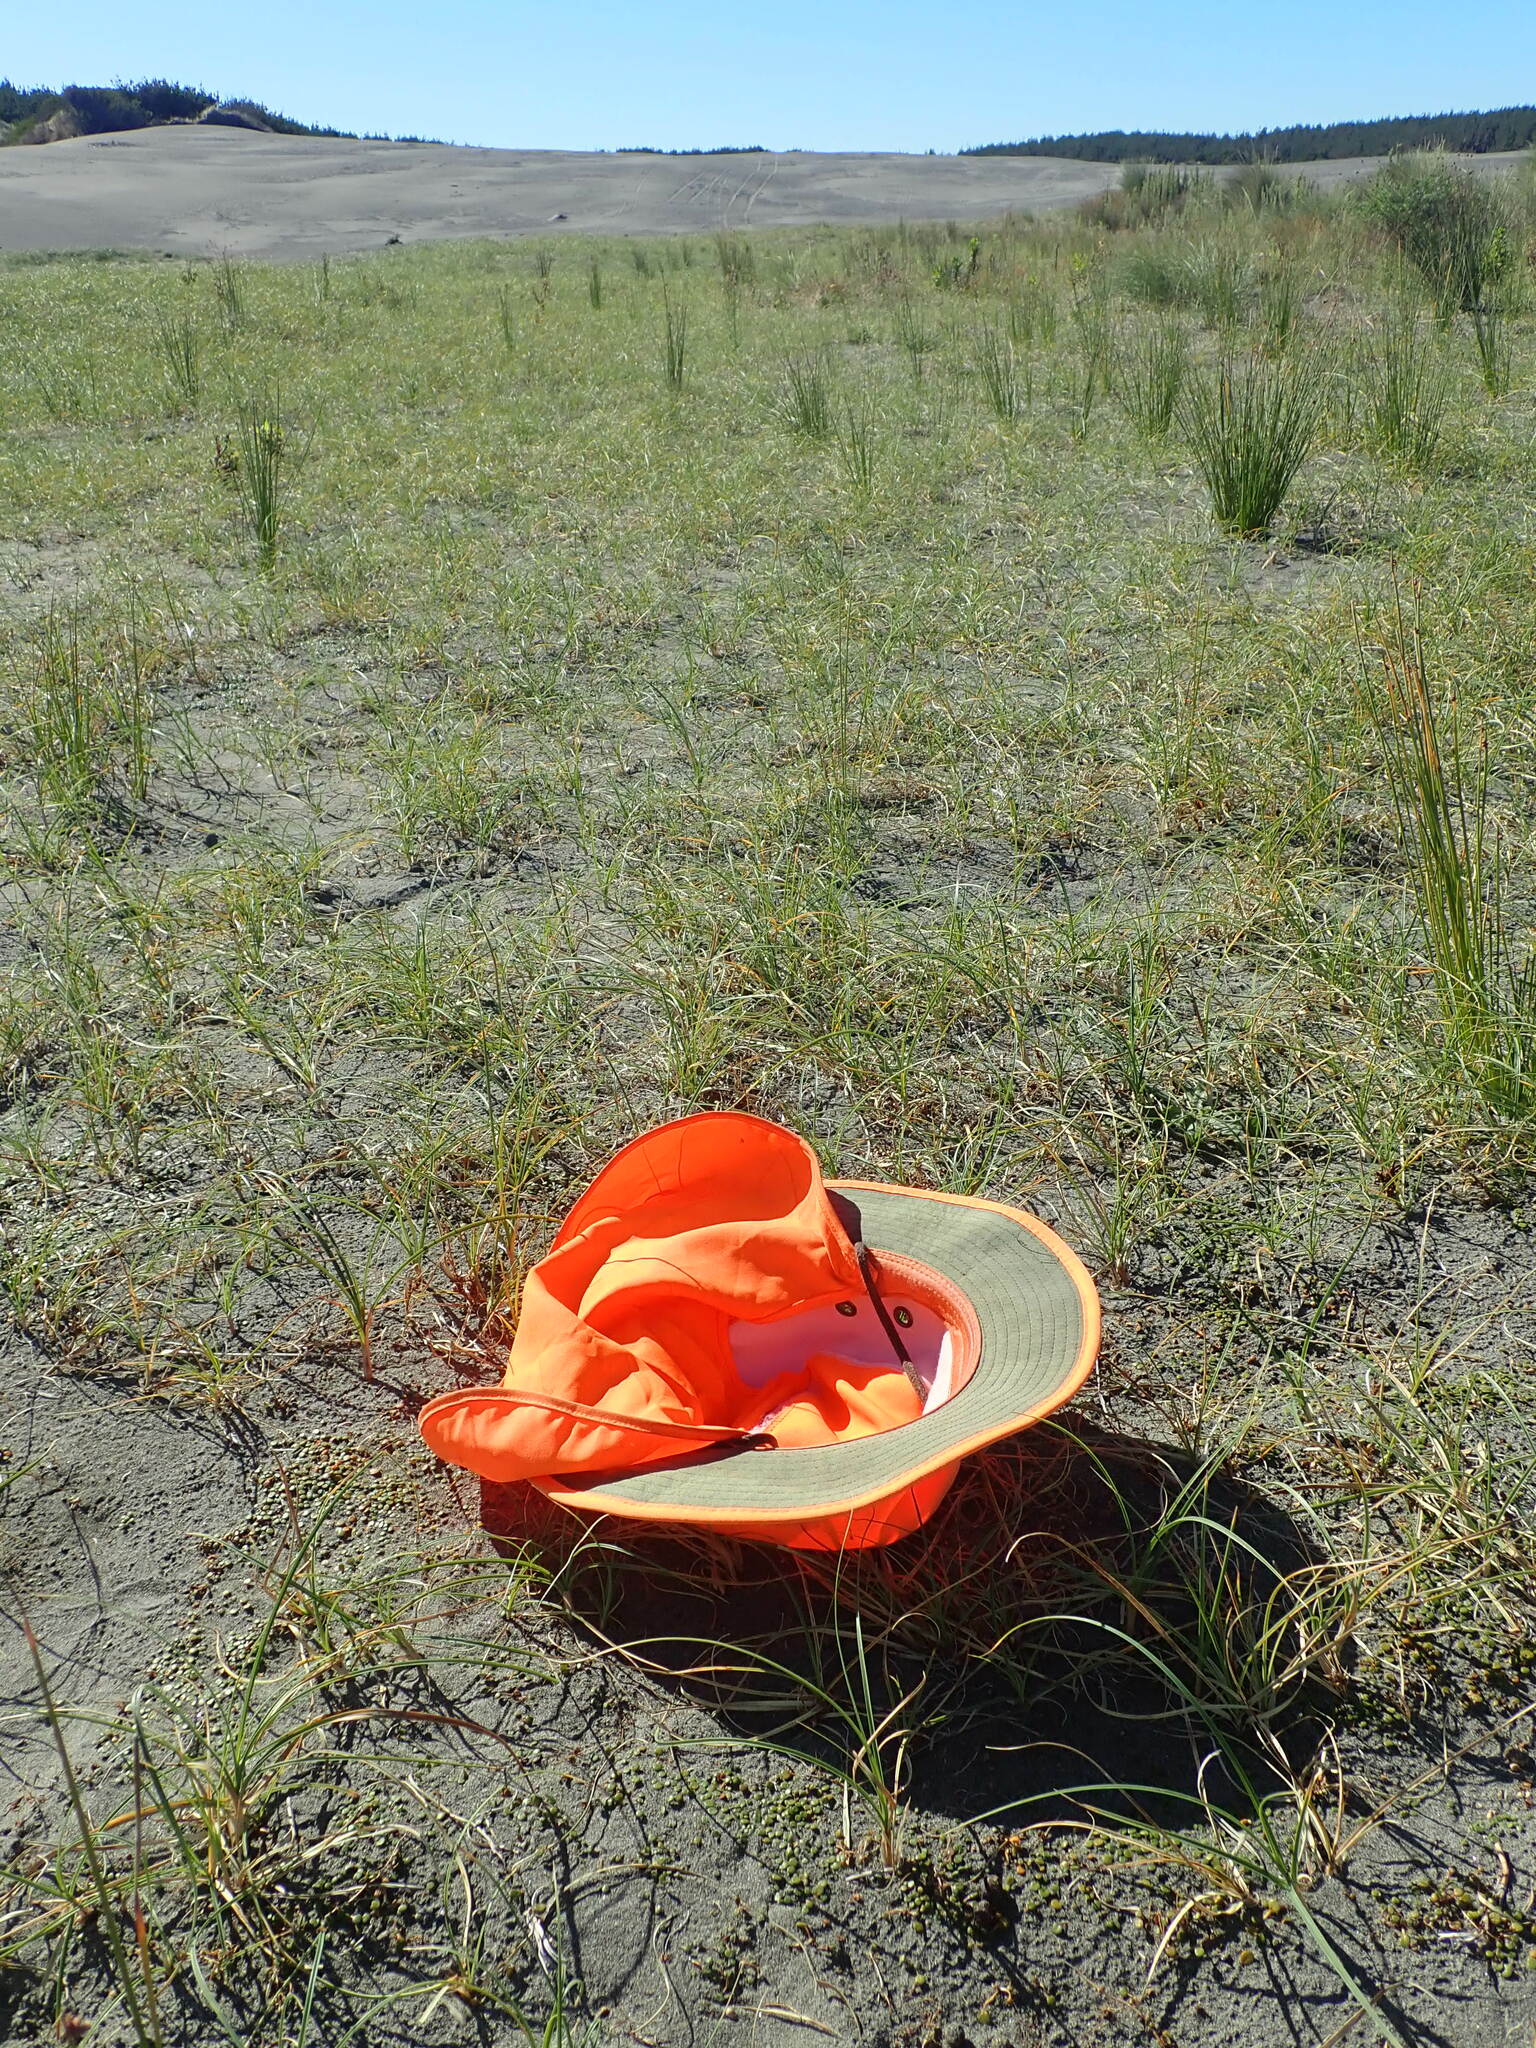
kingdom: Plantae
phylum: Tracheophyta
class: Magnoliopsida
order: Asterales
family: Goodeniaceae
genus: Goodenia
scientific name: Goodenia heenanii
